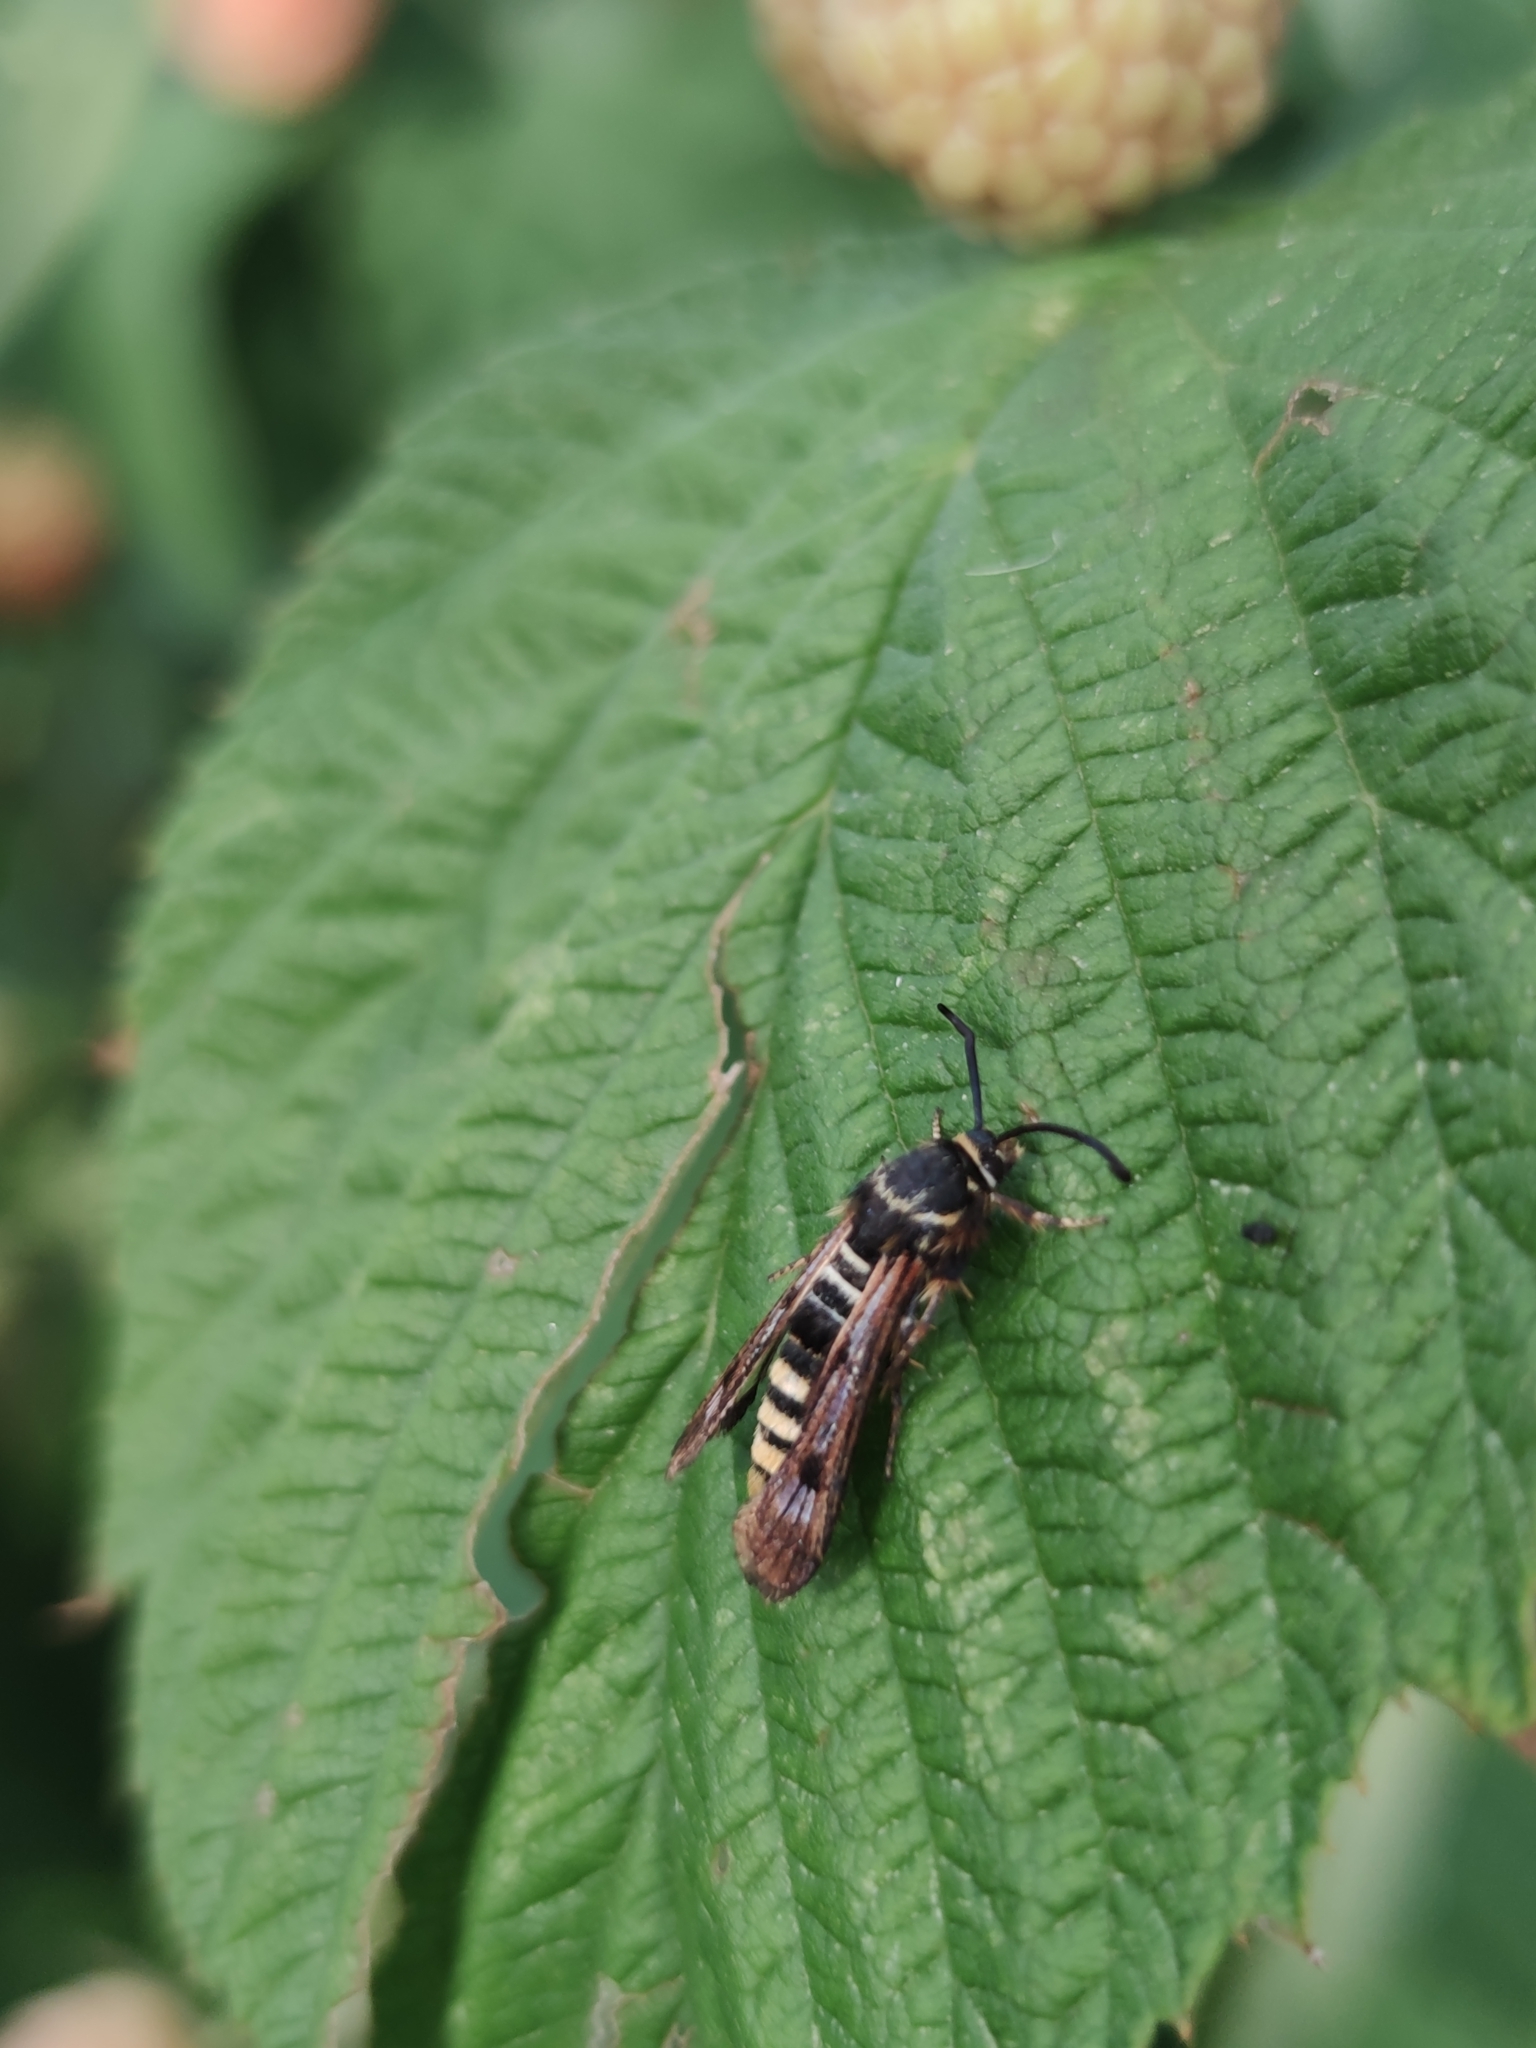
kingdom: Animalia
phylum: Arthropoda
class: Insecta
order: Lepidoptera
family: Sesiidae
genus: Pennisetia
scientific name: Pennisetia hylaeiformis
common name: Raspberry clearwing
